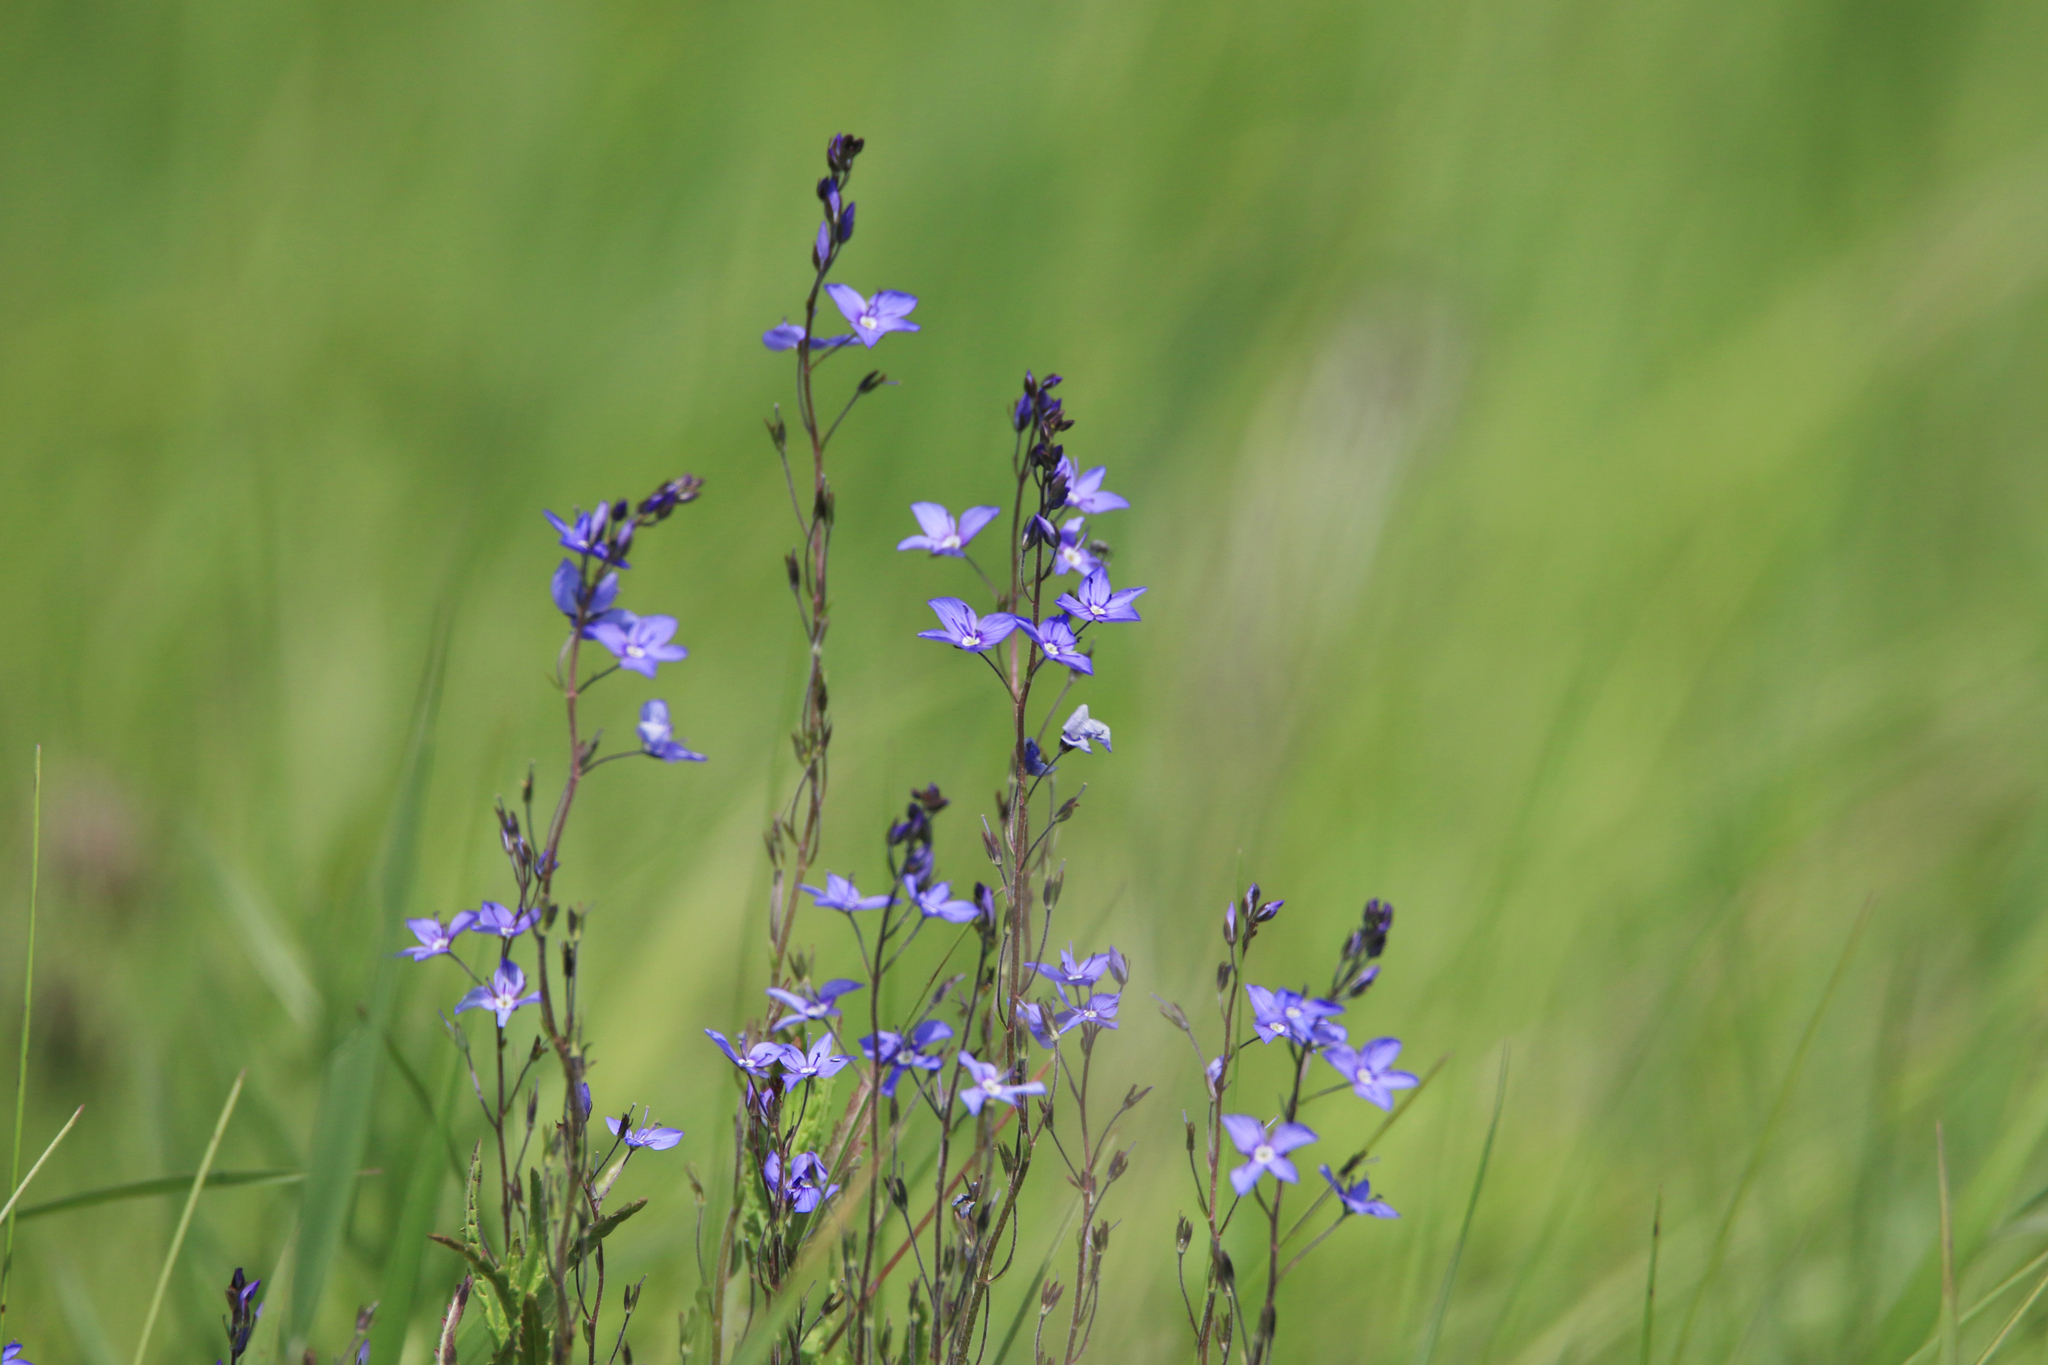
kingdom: Plantae
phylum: Tracheophyta
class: Magnoliopsida
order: Lamiales
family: Plantaginaceae
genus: Veronica
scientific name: Veronica krylovii
